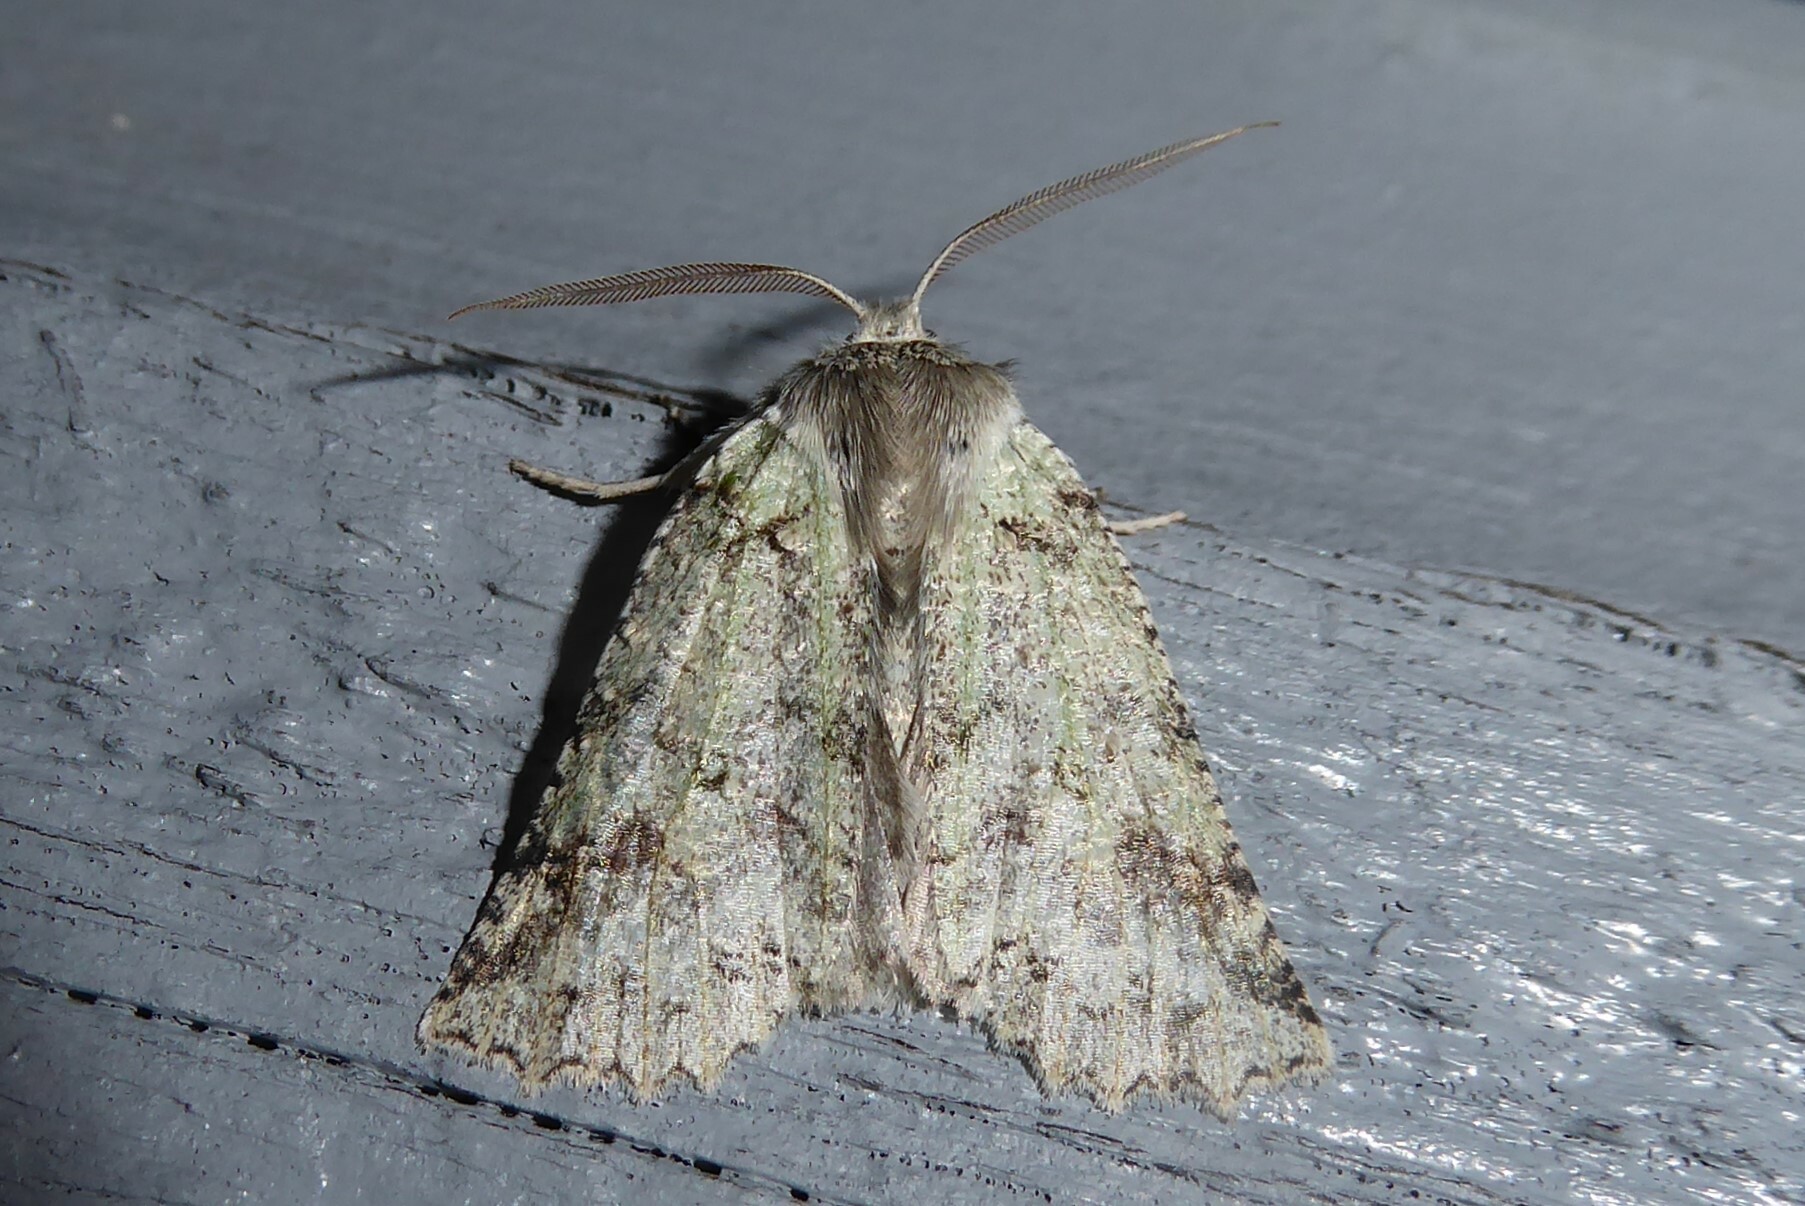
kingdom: Animalia
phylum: Arthropoda
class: Insecta
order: Lepidoptera
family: Geometridae
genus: Declana
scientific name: Declana floccosa
